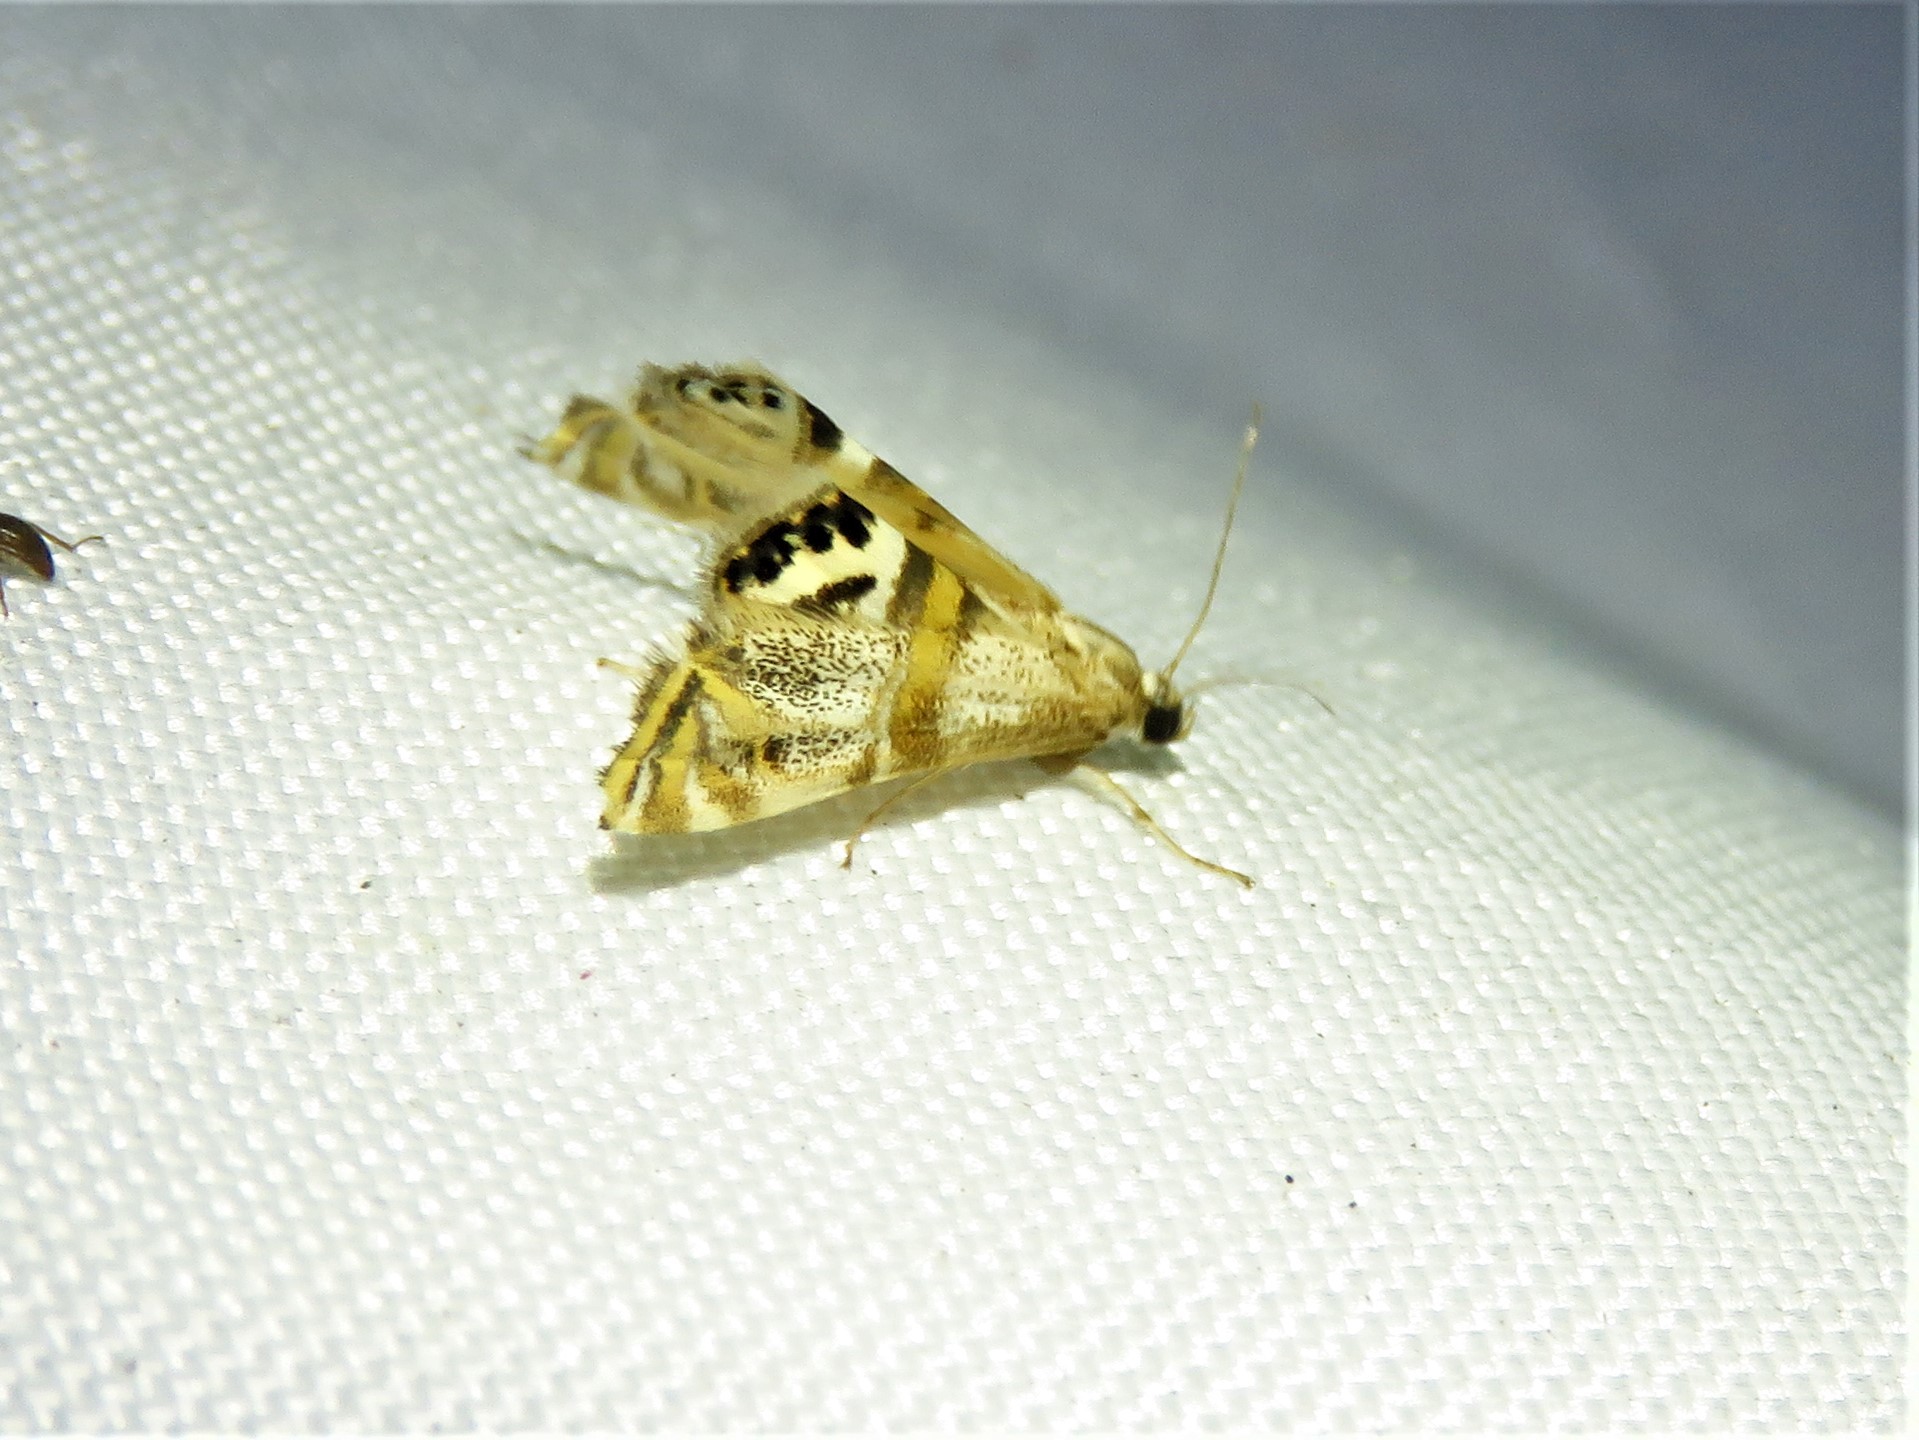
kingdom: Animalia
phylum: Arthropoda
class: Insecta
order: Lepidoptera
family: Crambidae
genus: Petrophila
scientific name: Petrophila bifascialis
